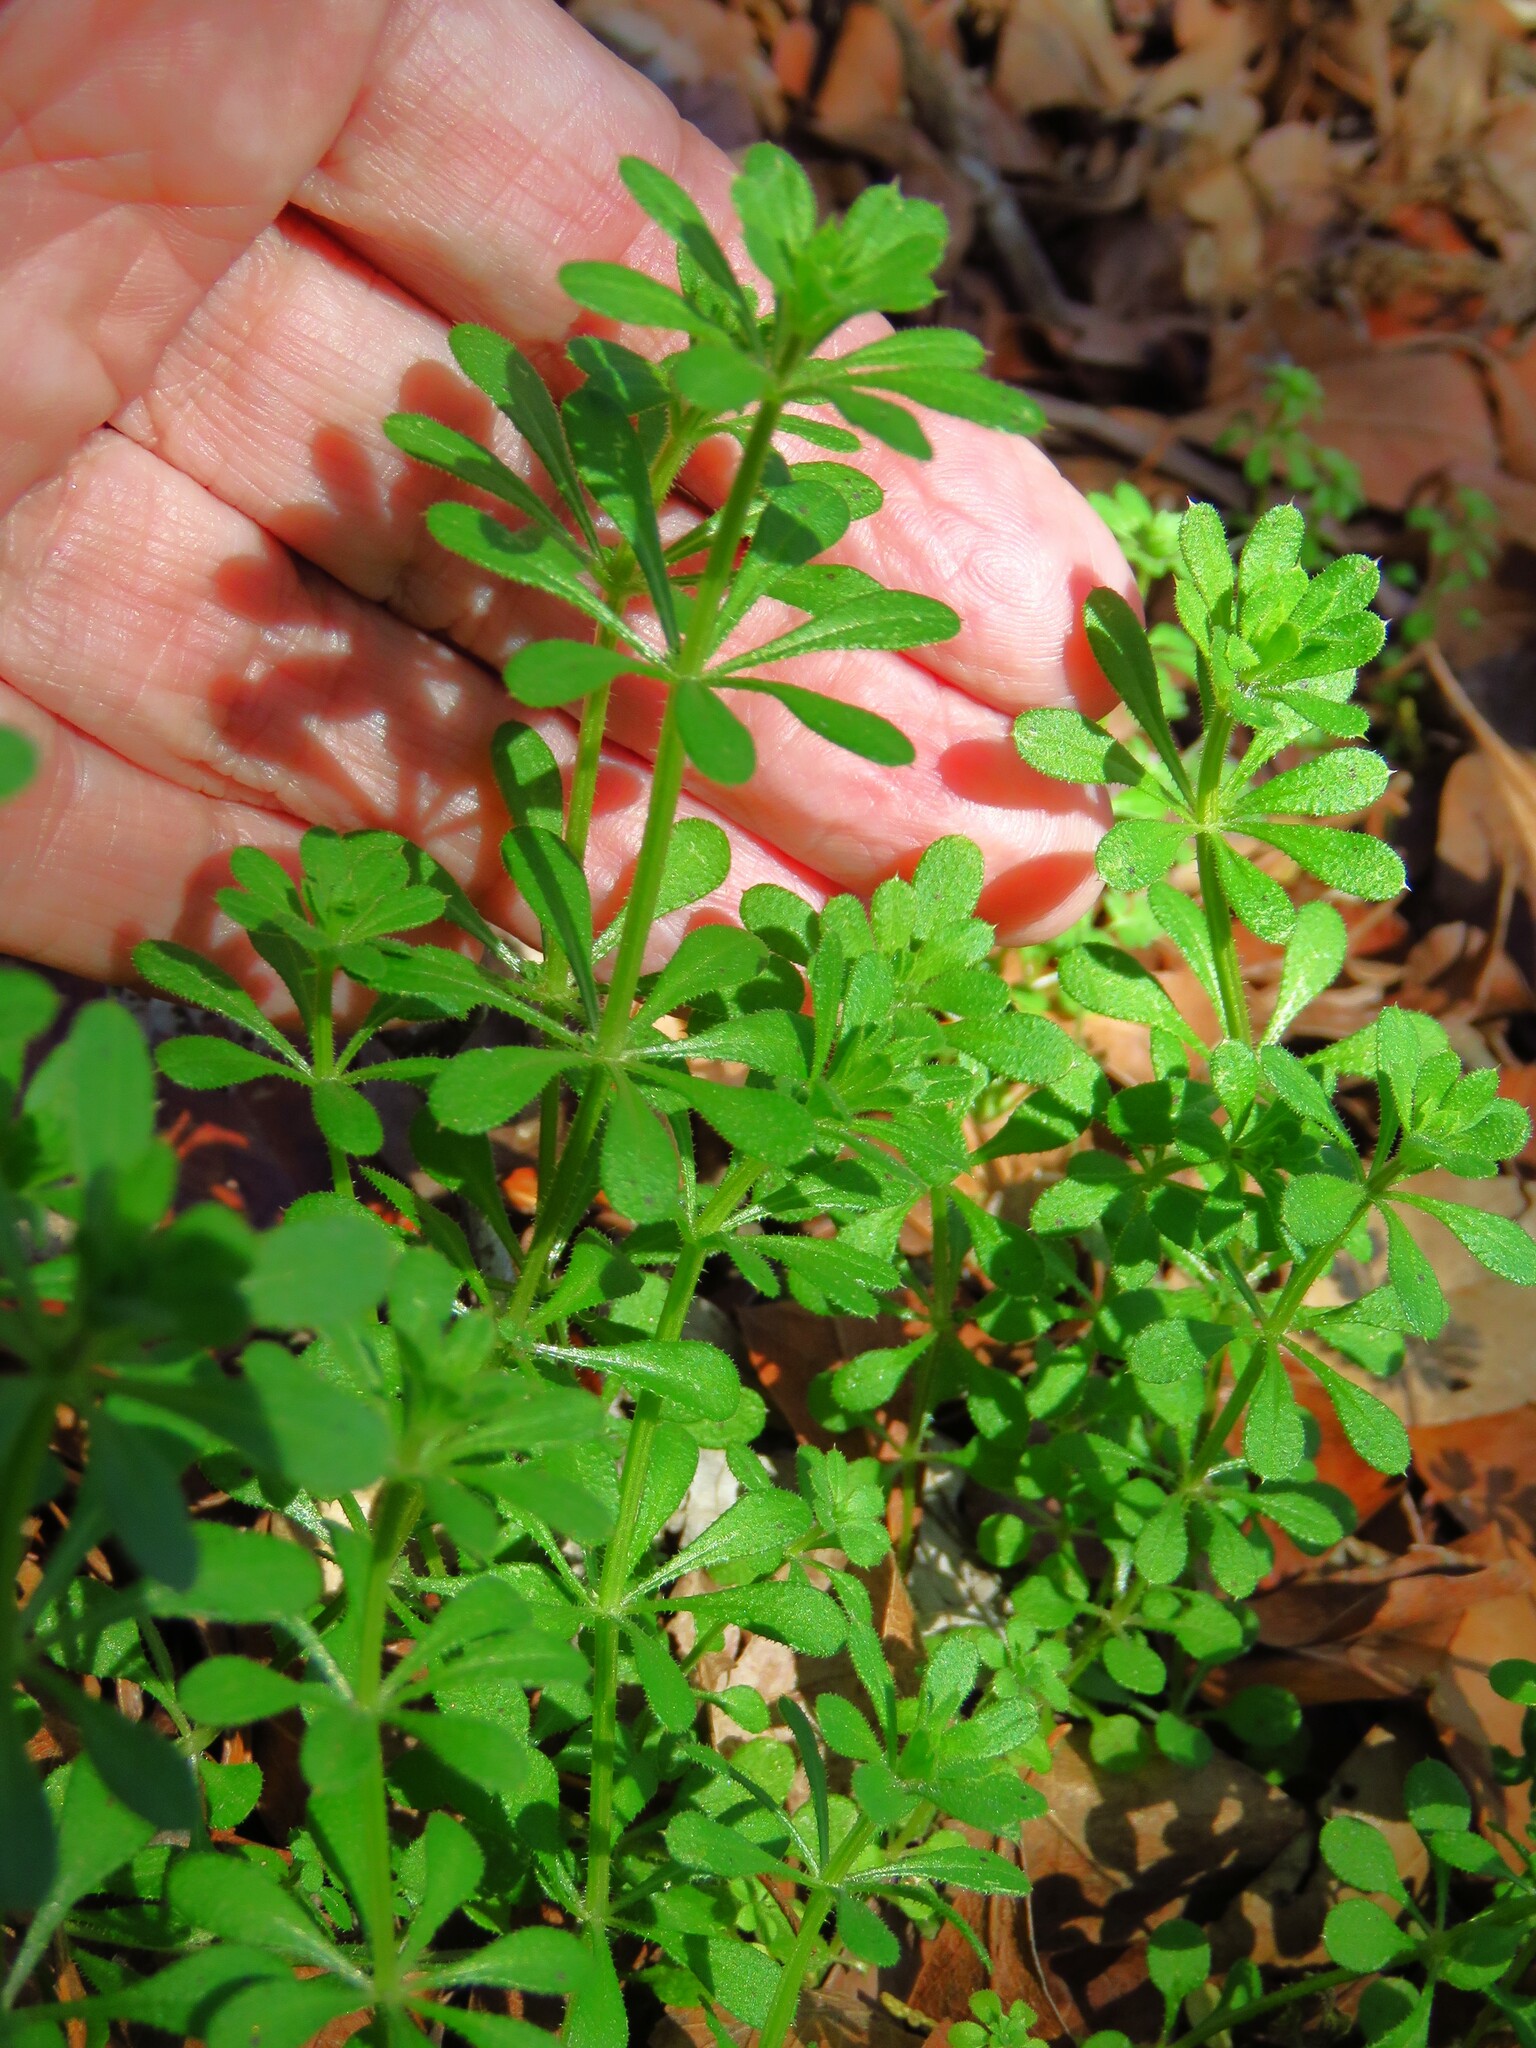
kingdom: Plantae
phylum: Tracheophyta
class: Magnoliopsida
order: Gentianales
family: Rubiaceae
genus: Galium
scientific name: Galium aparine
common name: Cleavers
